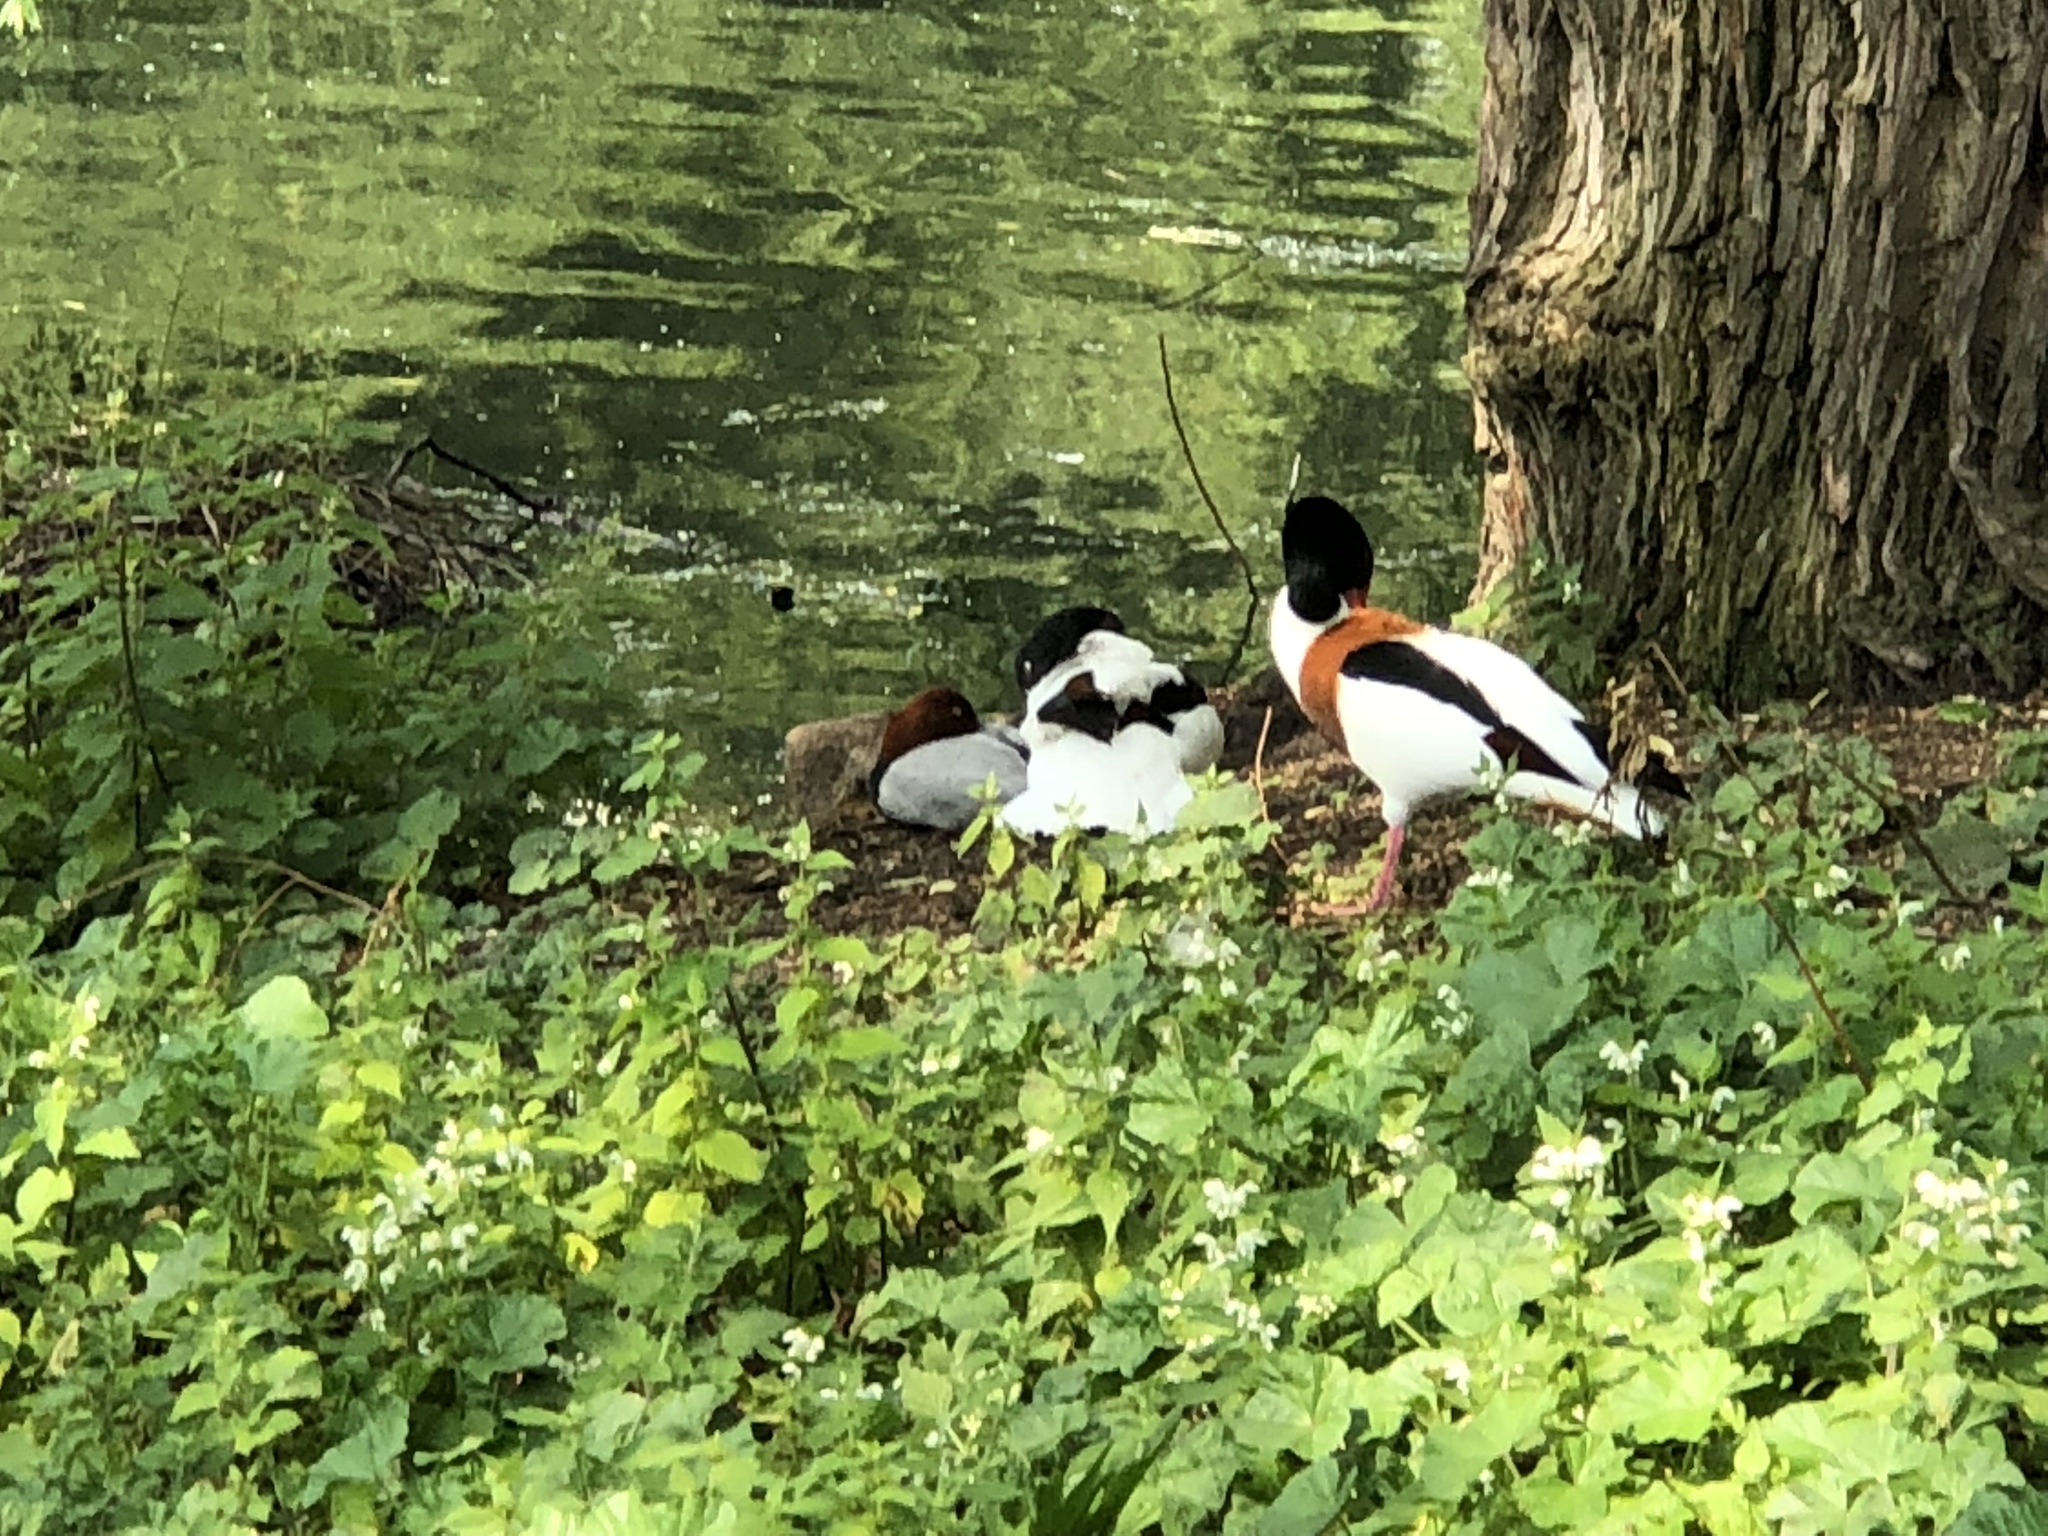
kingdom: Animalia
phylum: Chordata
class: Aves
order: Anseriformes
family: Anatidae
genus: Tadorna
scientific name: Tadorna tadorna
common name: Common shelduck
